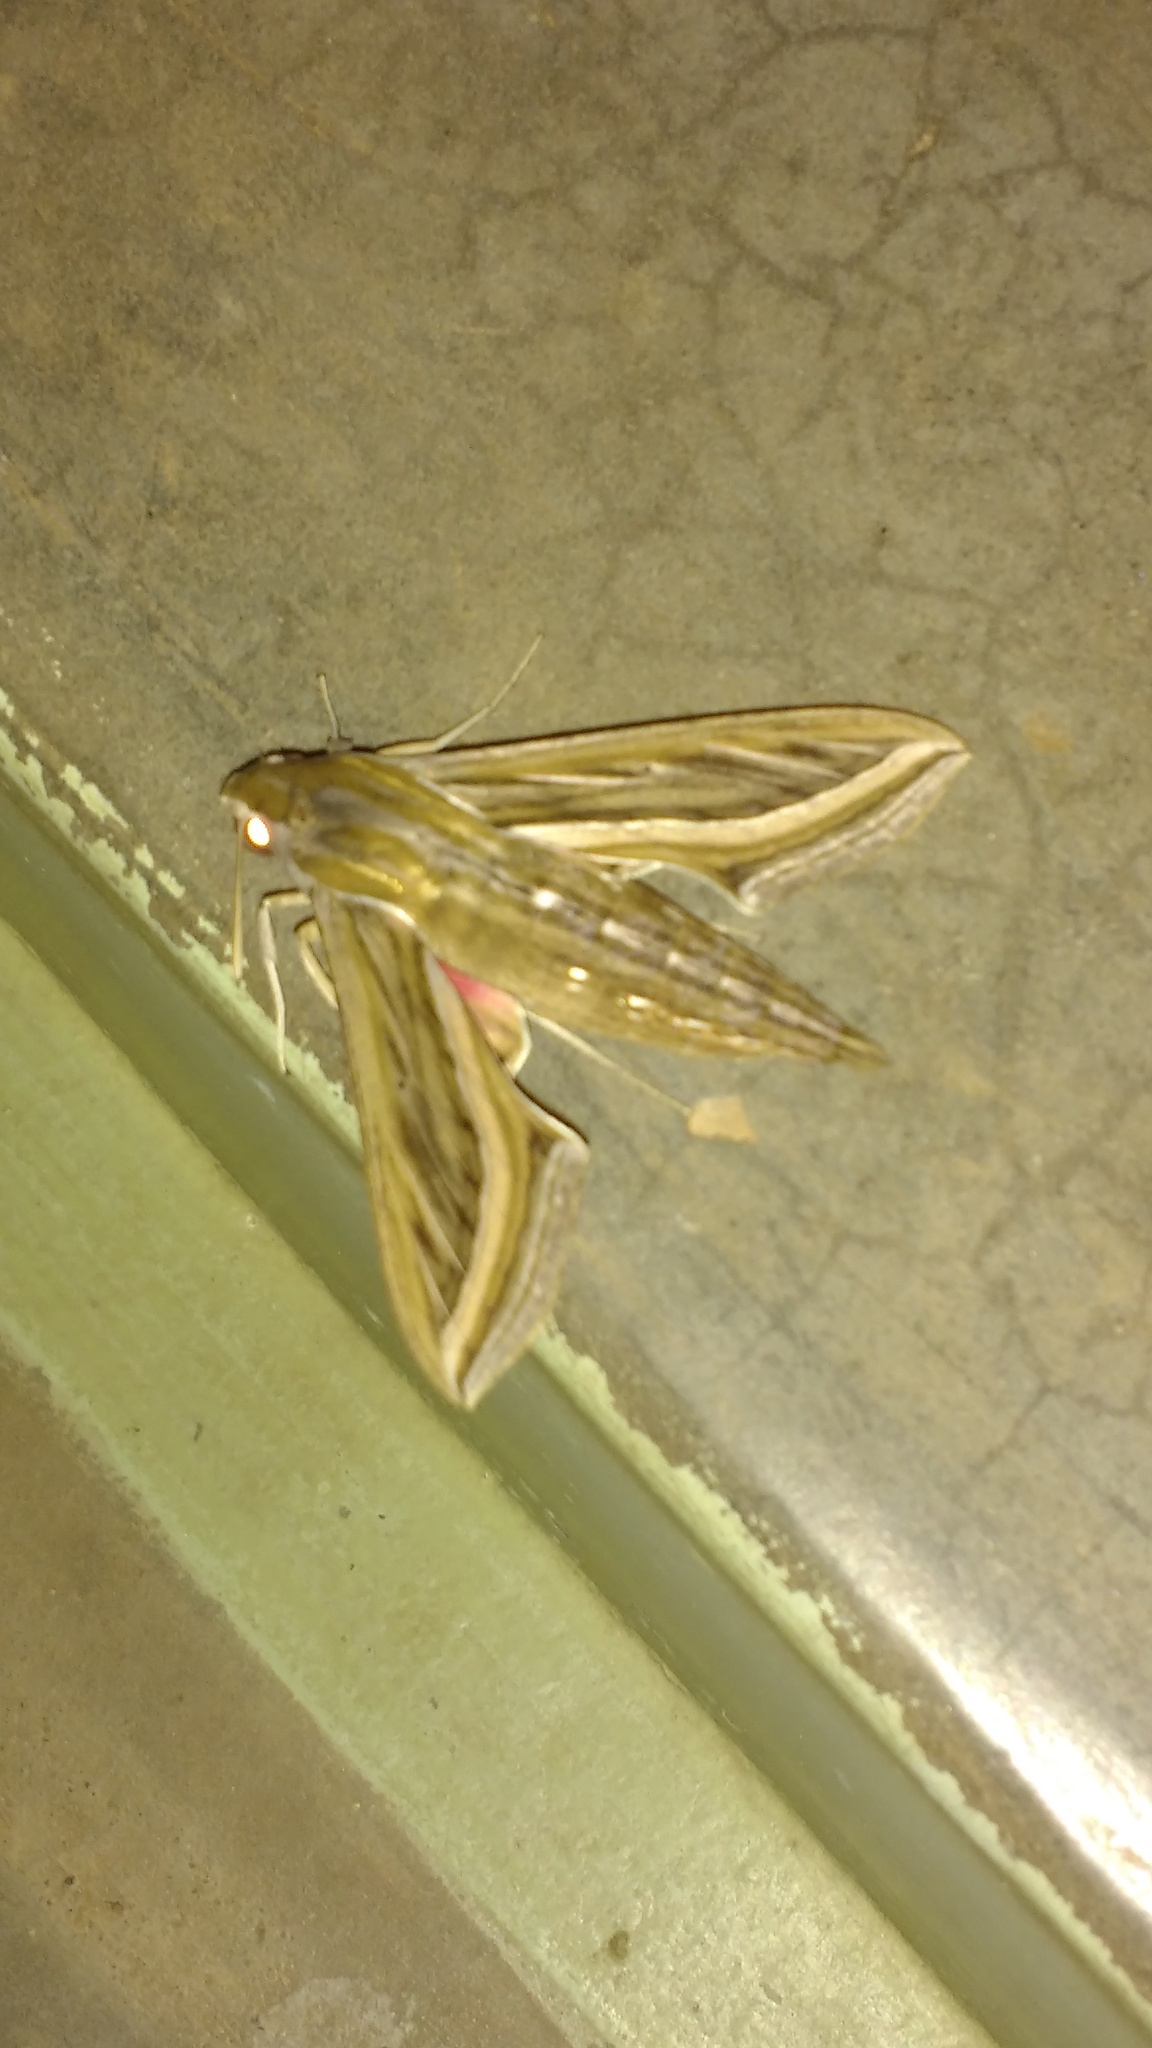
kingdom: Animalia
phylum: Arthropoda
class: Insecta
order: Lepidoptera
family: Sphingidae
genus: Hippotion
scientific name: Hippotion celerio
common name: Silver-striped hawk-moth
